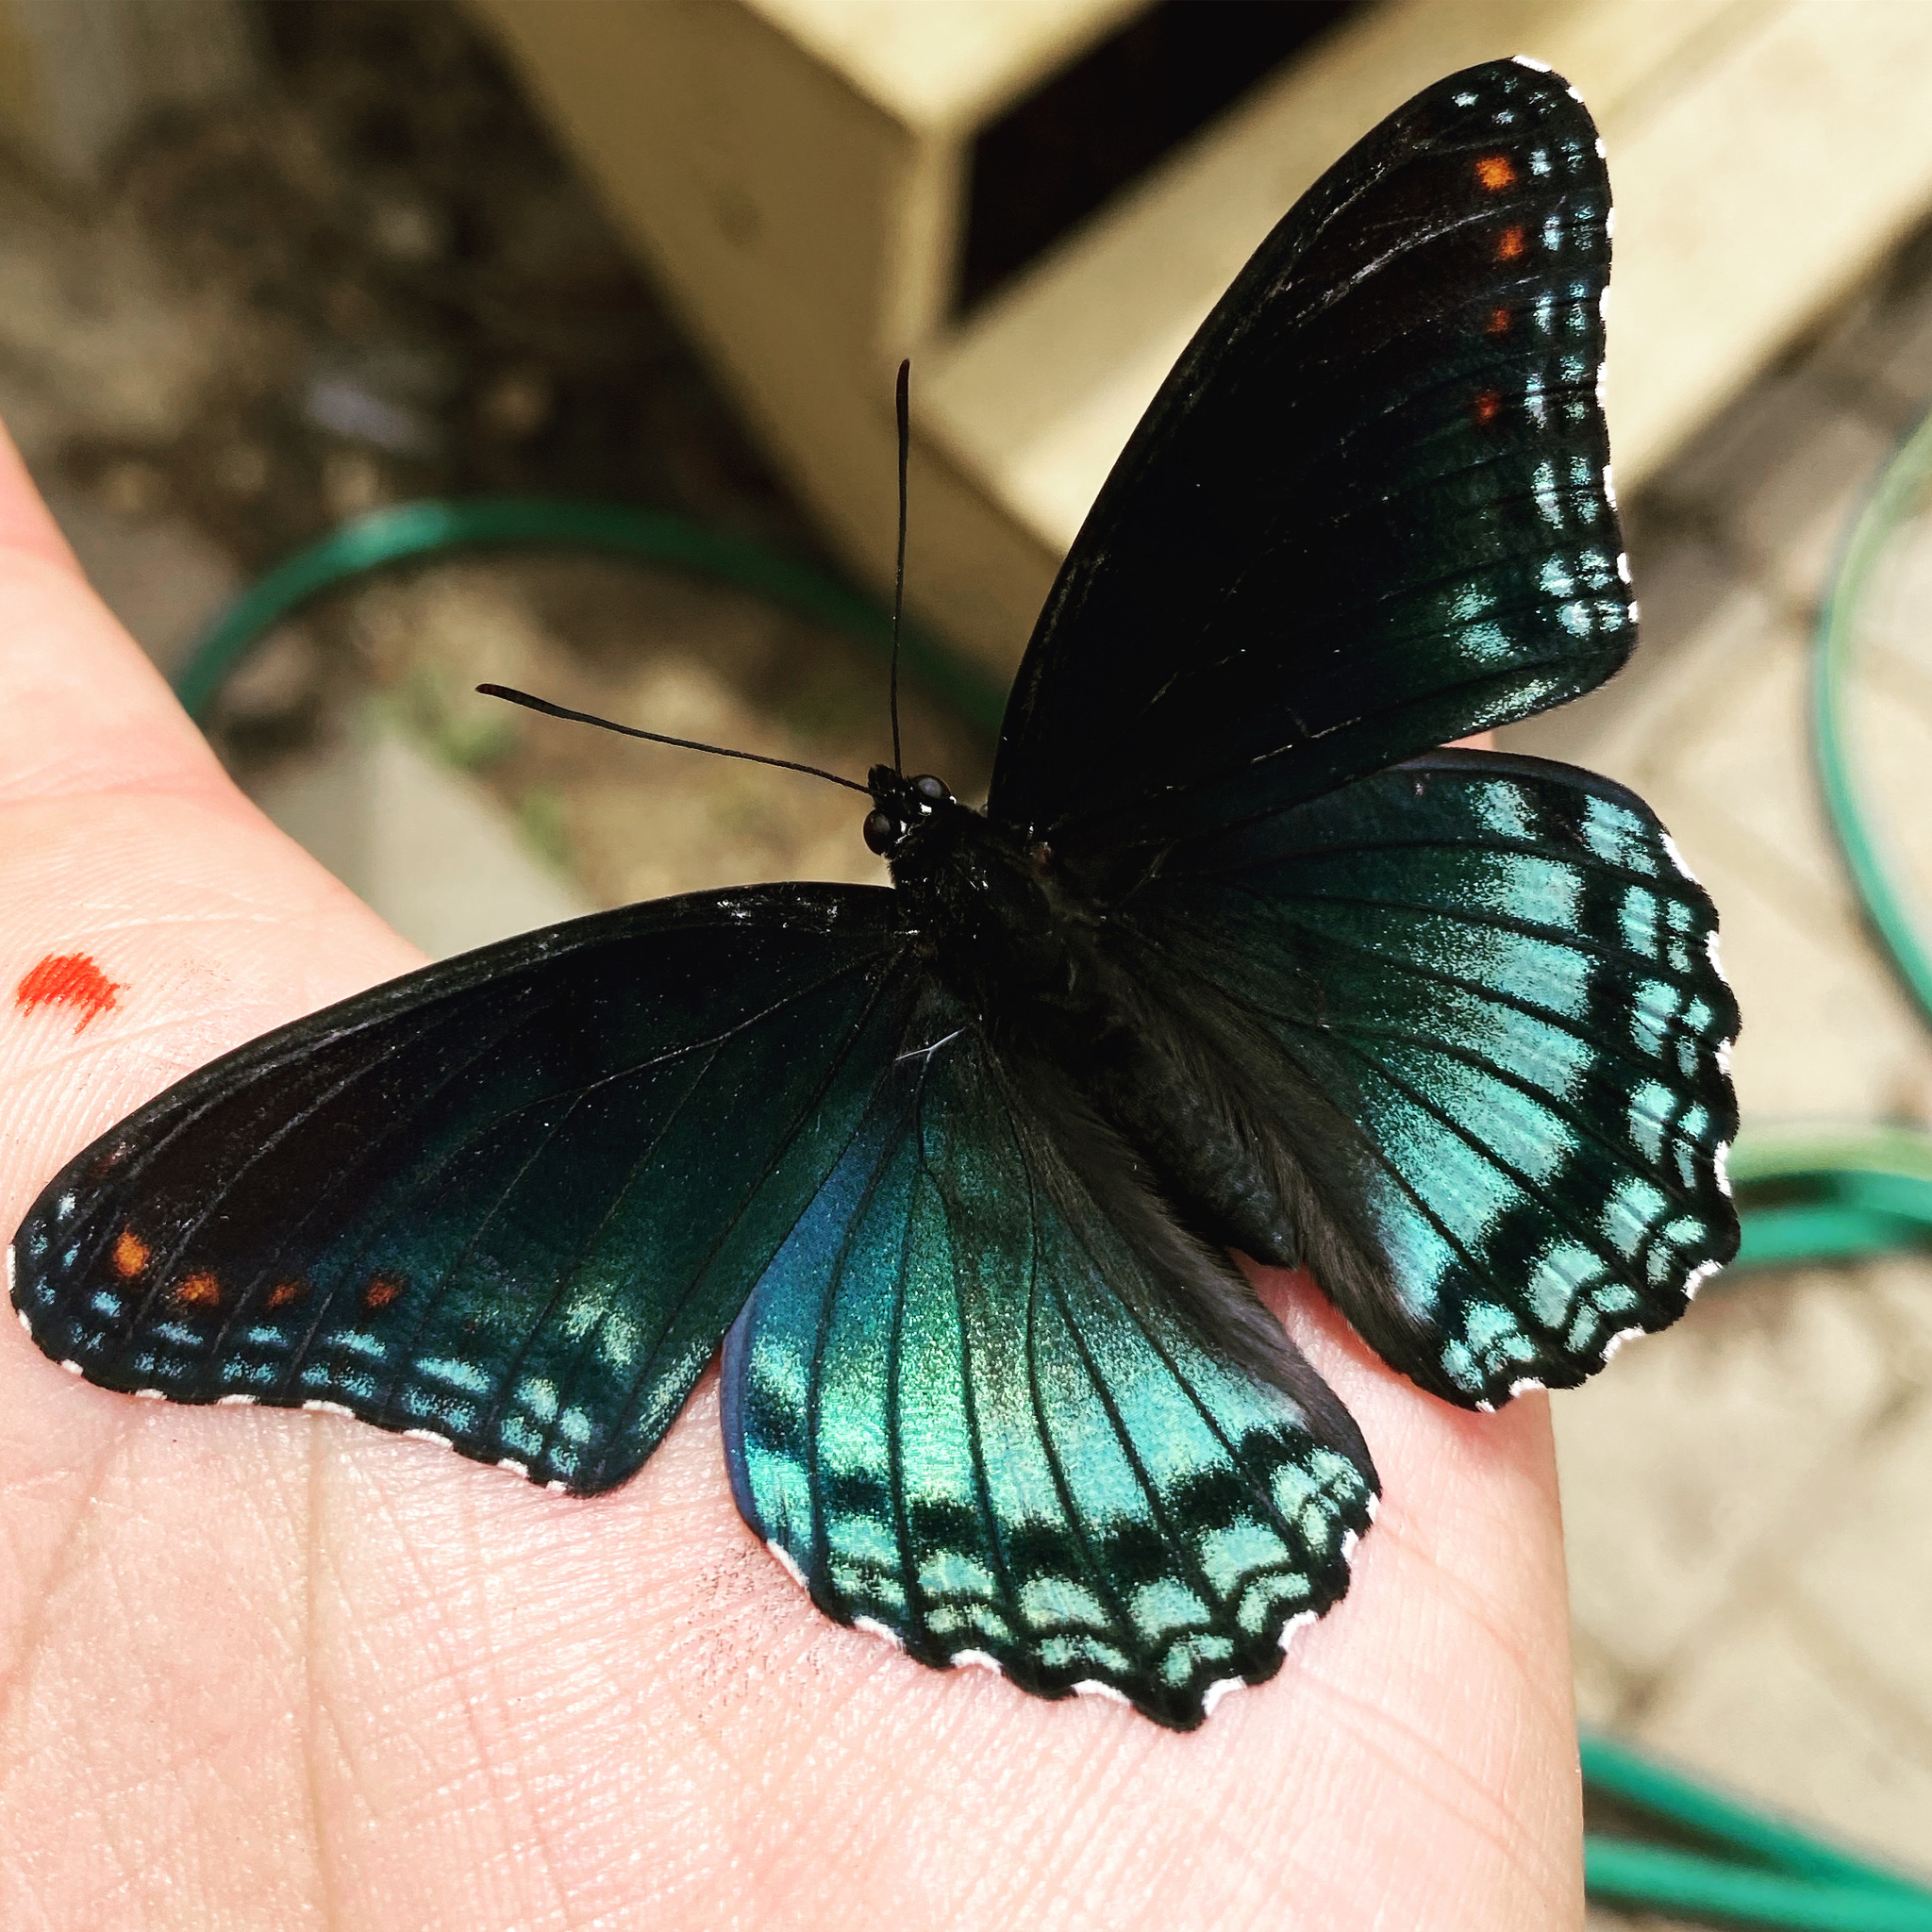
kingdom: Animalia
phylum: Arthropoda
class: Insecta
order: Lepidoptera
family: Nymphalidae
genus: Limenitis
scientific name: Limenitis arthemis
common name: Red-spotted admiral
